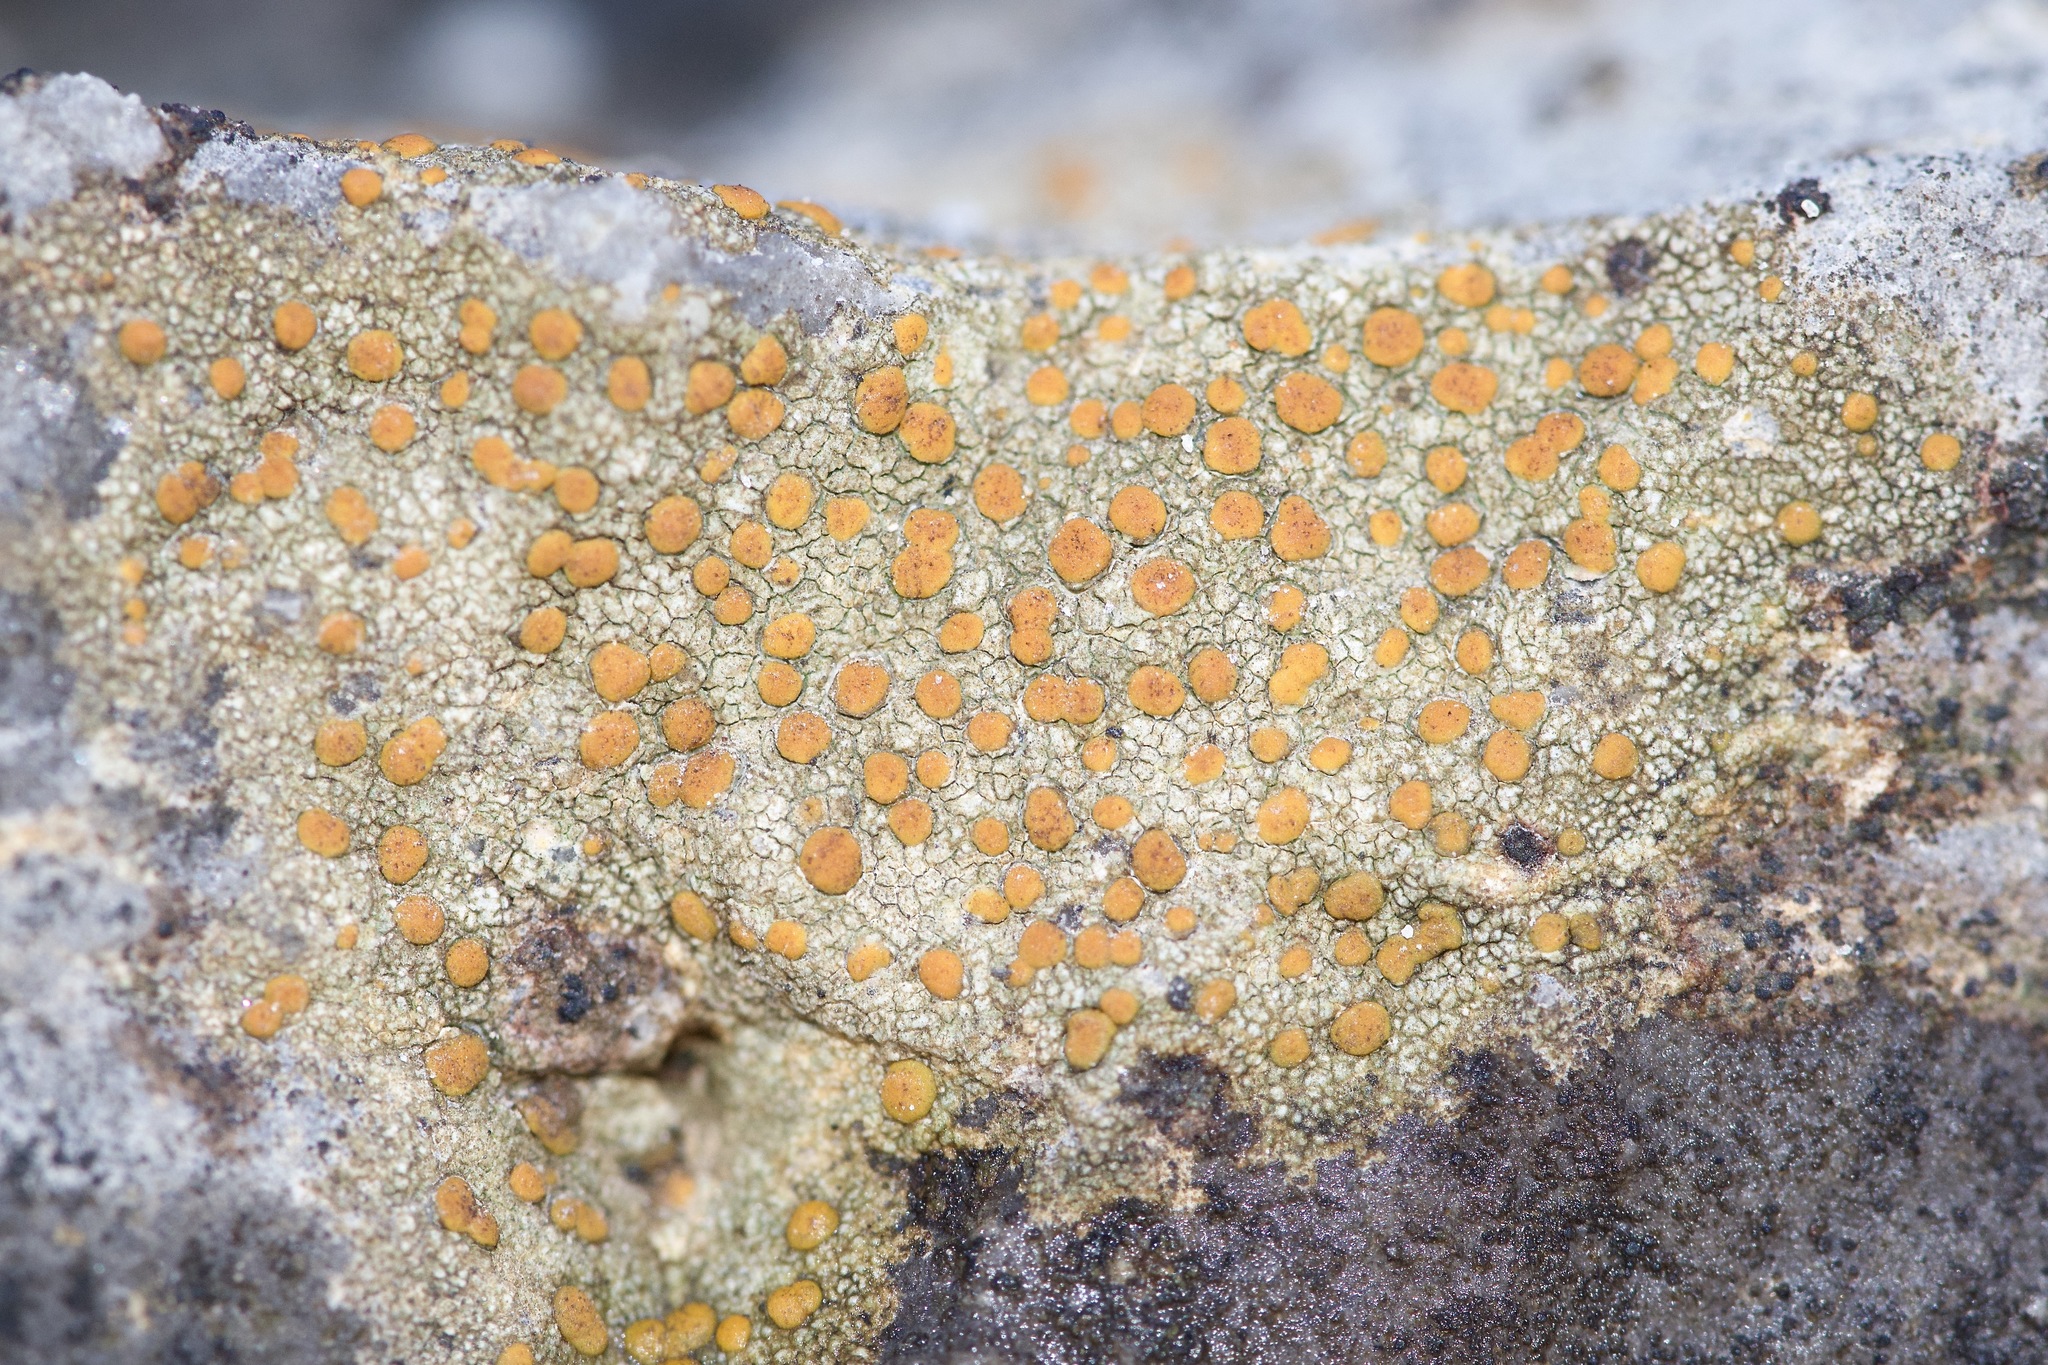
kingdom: Fungi
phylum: Ascomycota
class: Lecanoromycetes
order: Lecanorales
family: Psoraceae
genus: Protoblastenia
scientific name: Protoblastenia rupestris
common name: Chewing gum lichen
